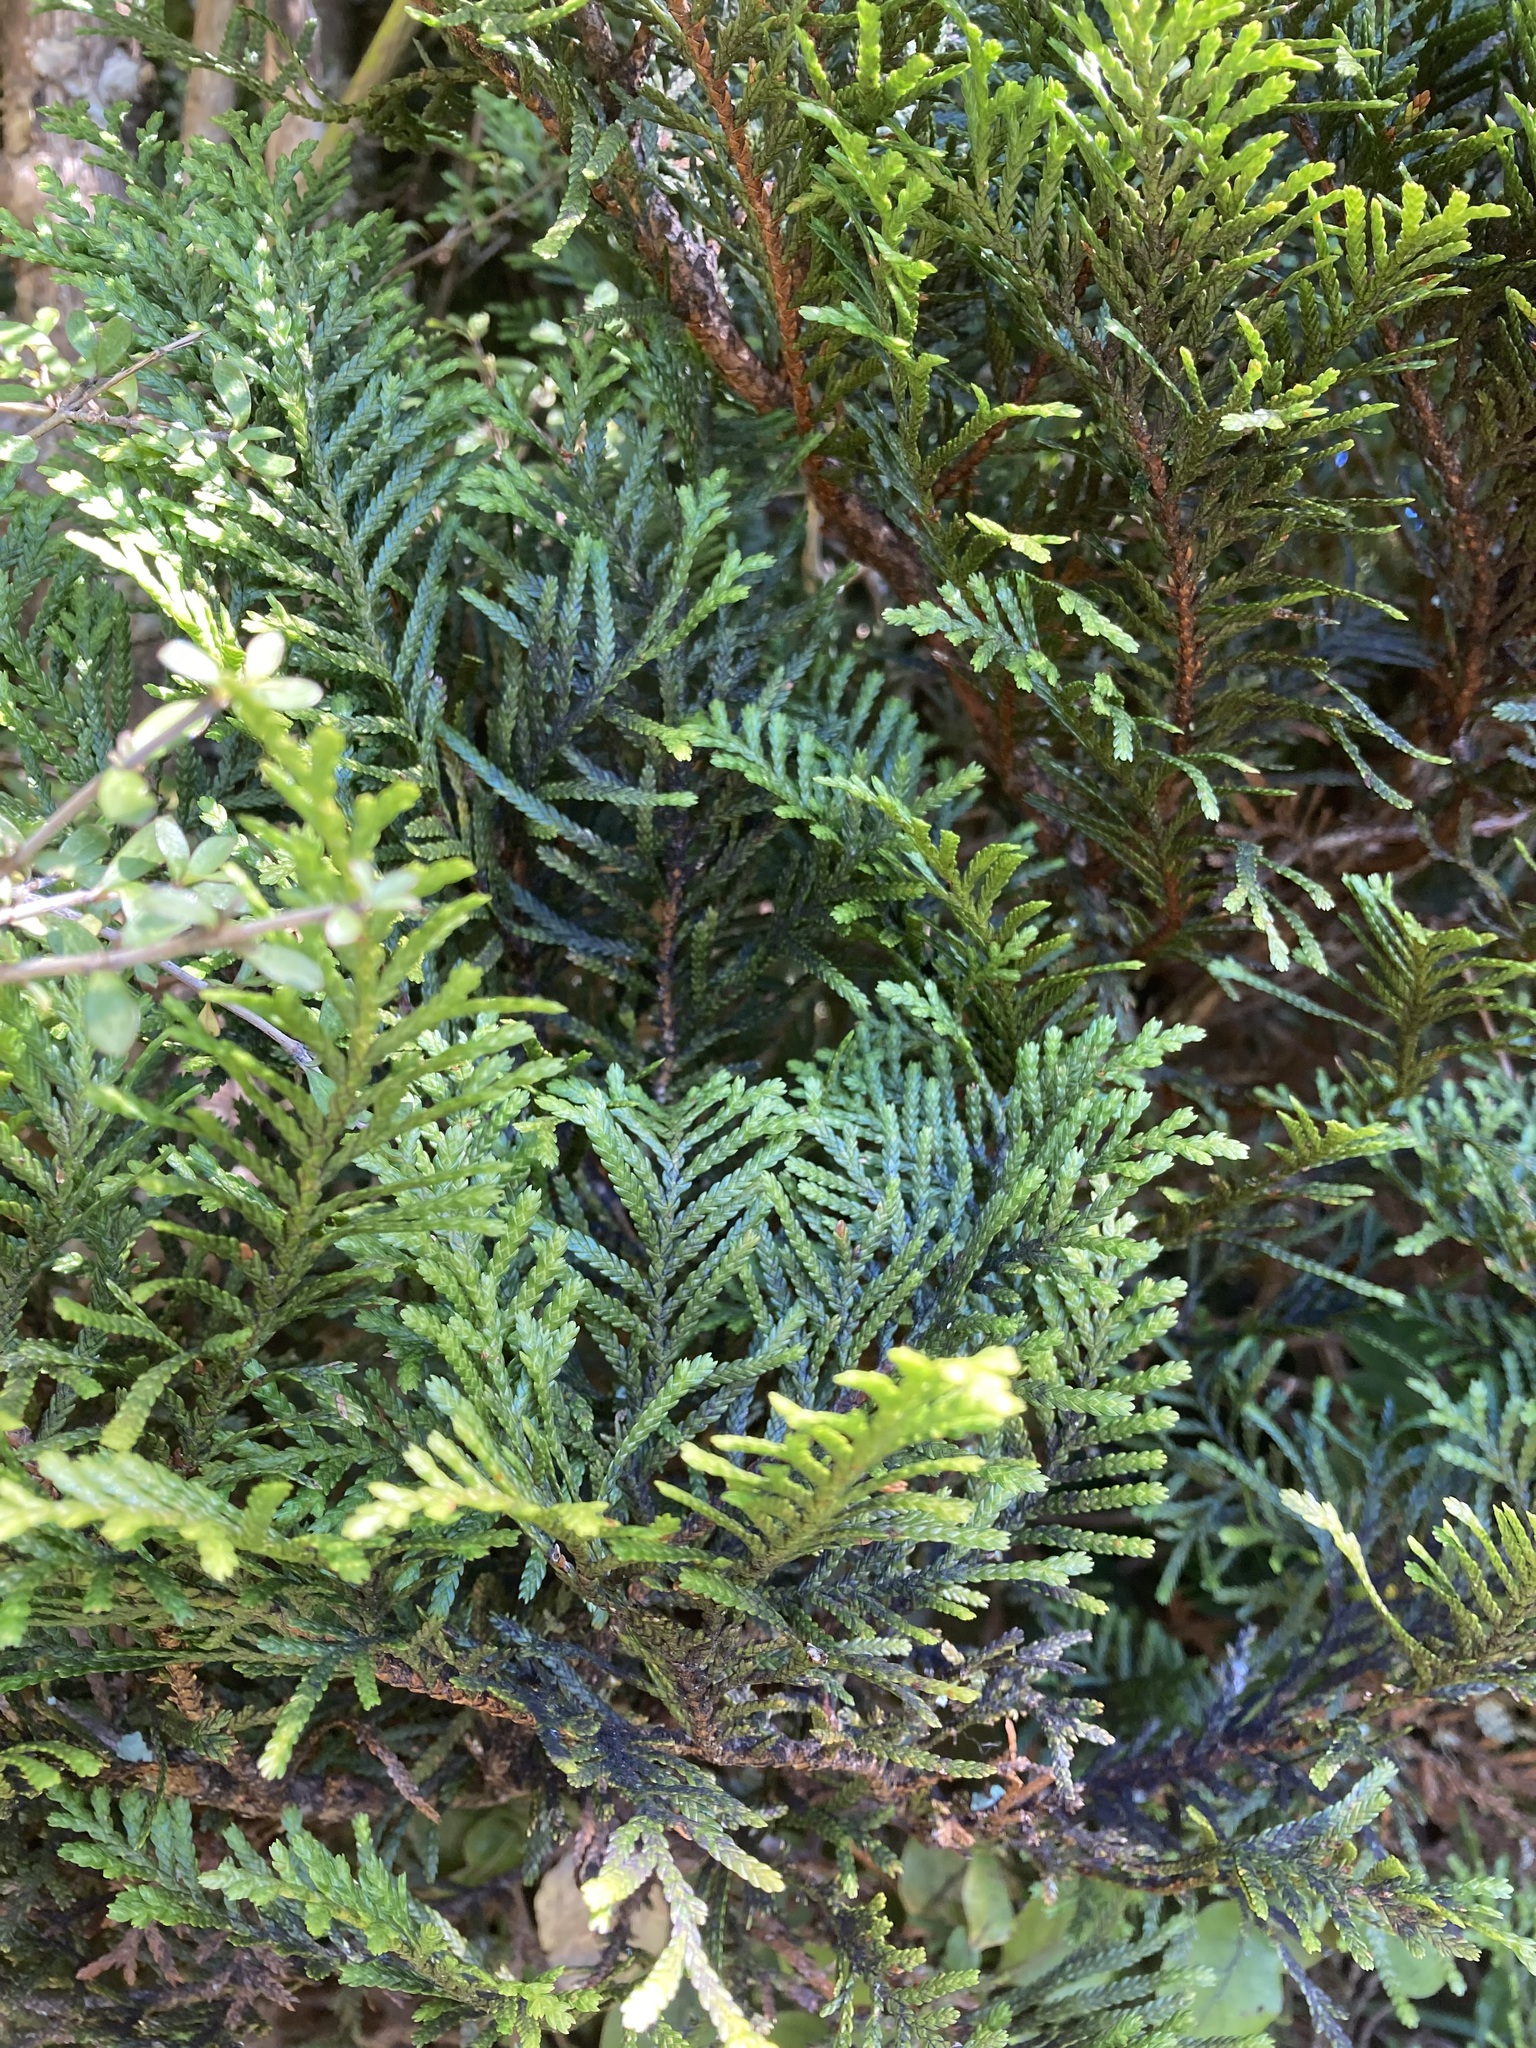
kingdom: Plantae
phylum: Tracheophyta
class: Pinopsida
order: Pinales
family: Cupressaceae
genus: Libocedrus
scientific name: Libocedrus bidwillii
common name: Cedar
